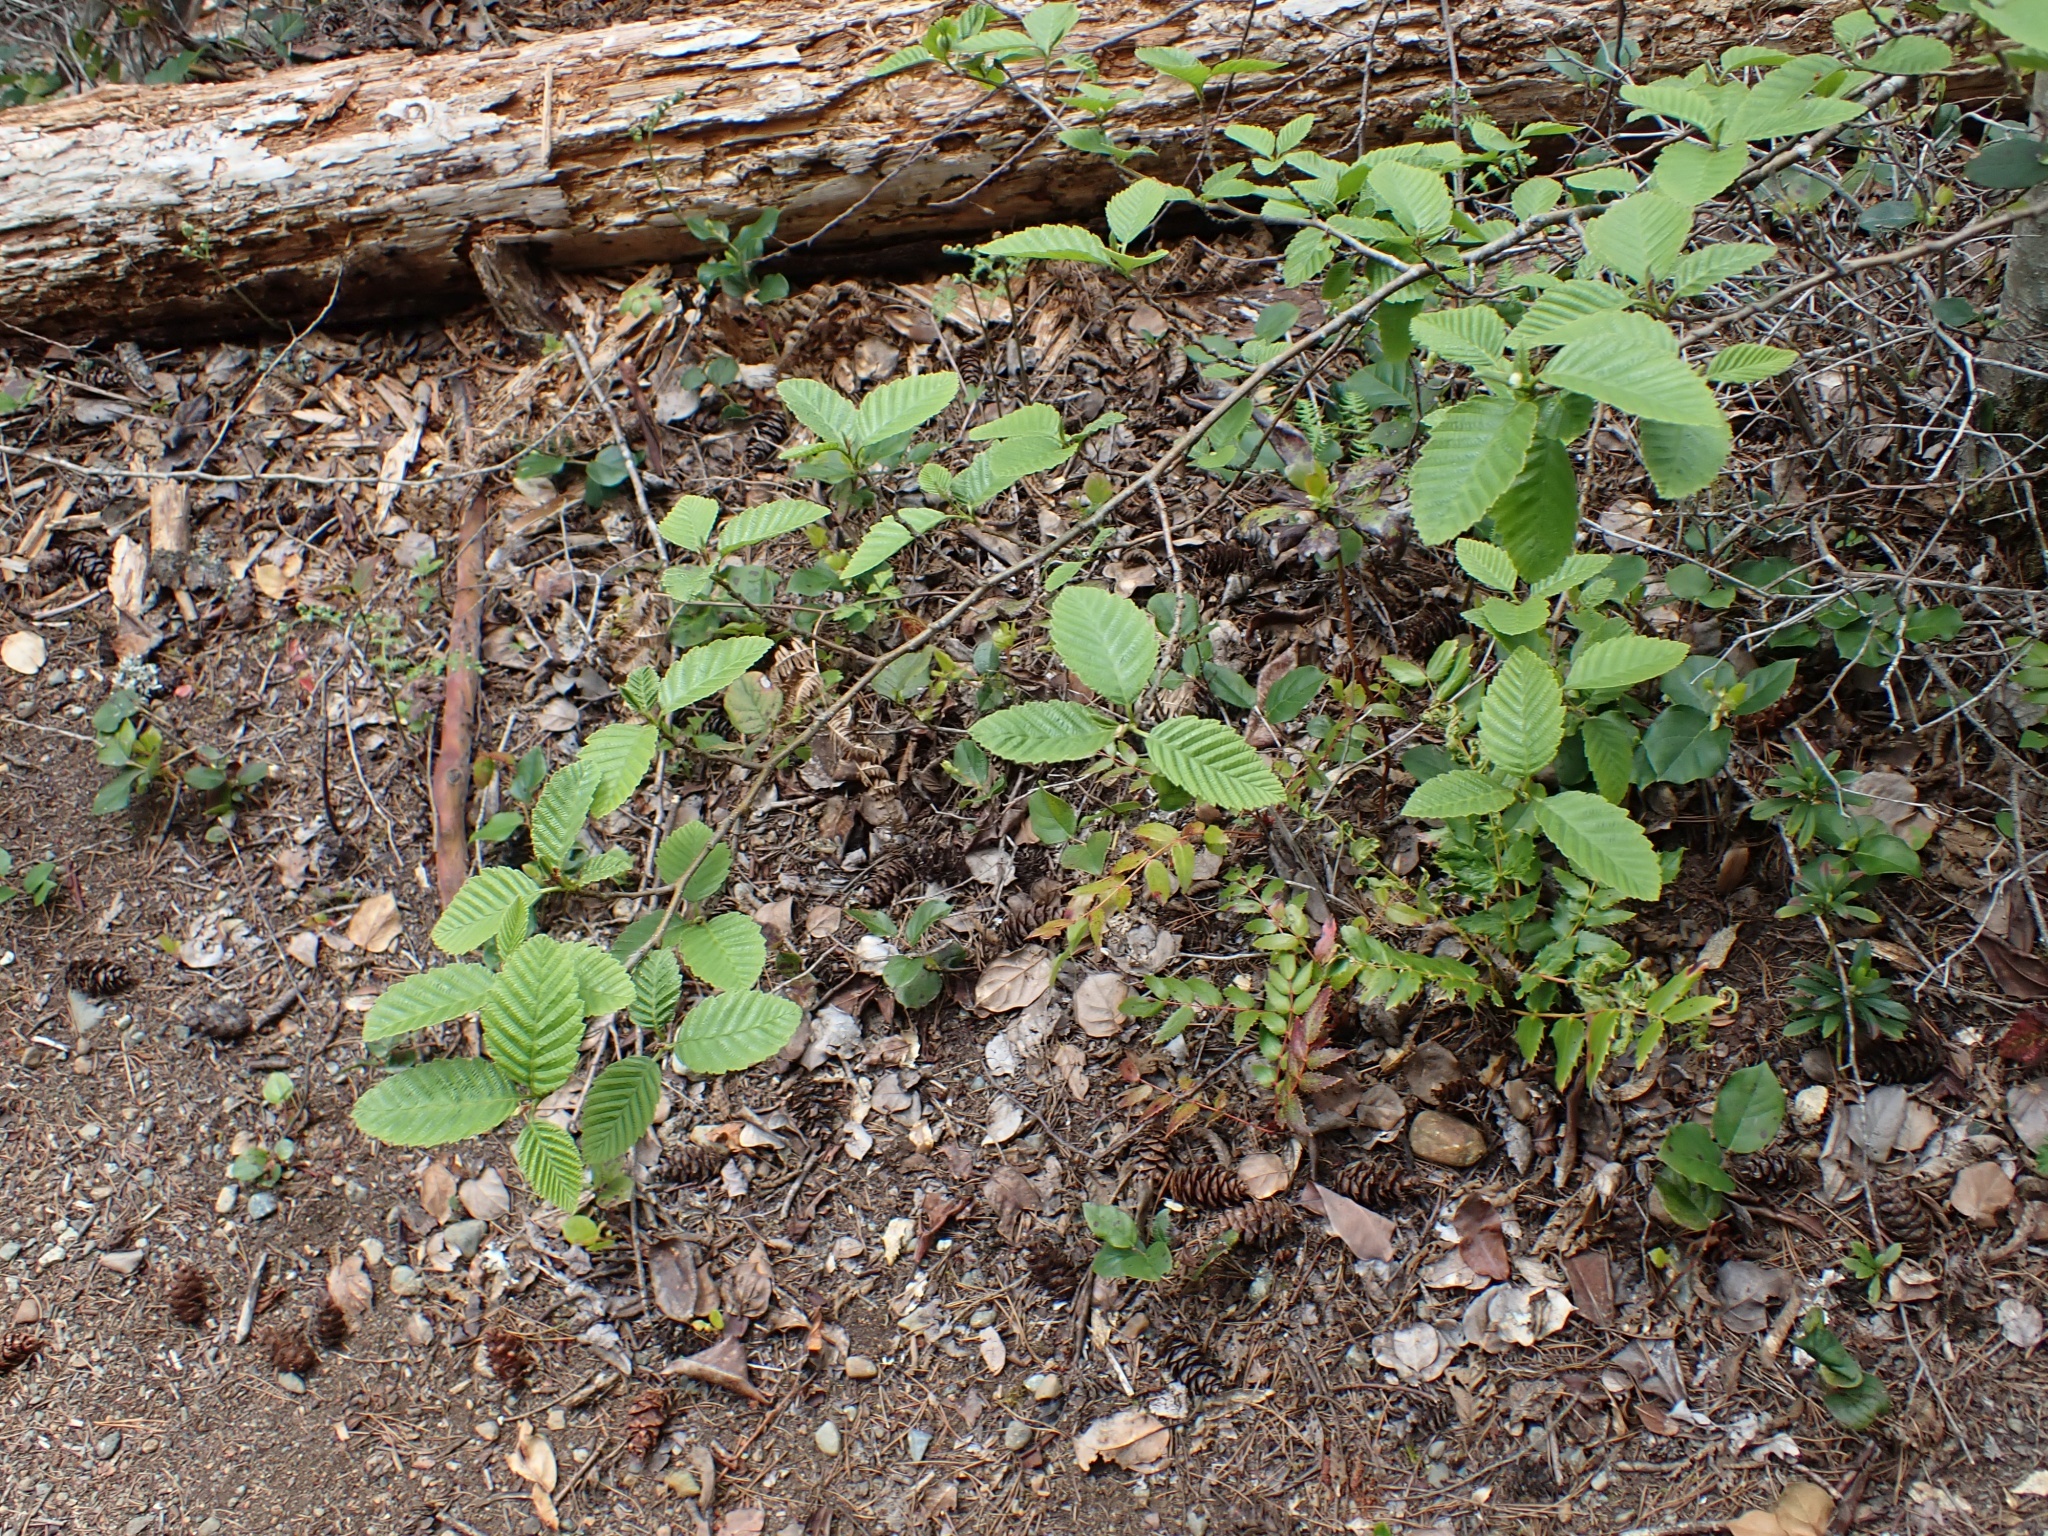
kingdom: Plantae
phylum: Tracheophyta
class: Magnoliopsida
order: Fagales
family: Betulaceae
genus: Alnus
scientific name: Alnus rubra
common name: Red alder
